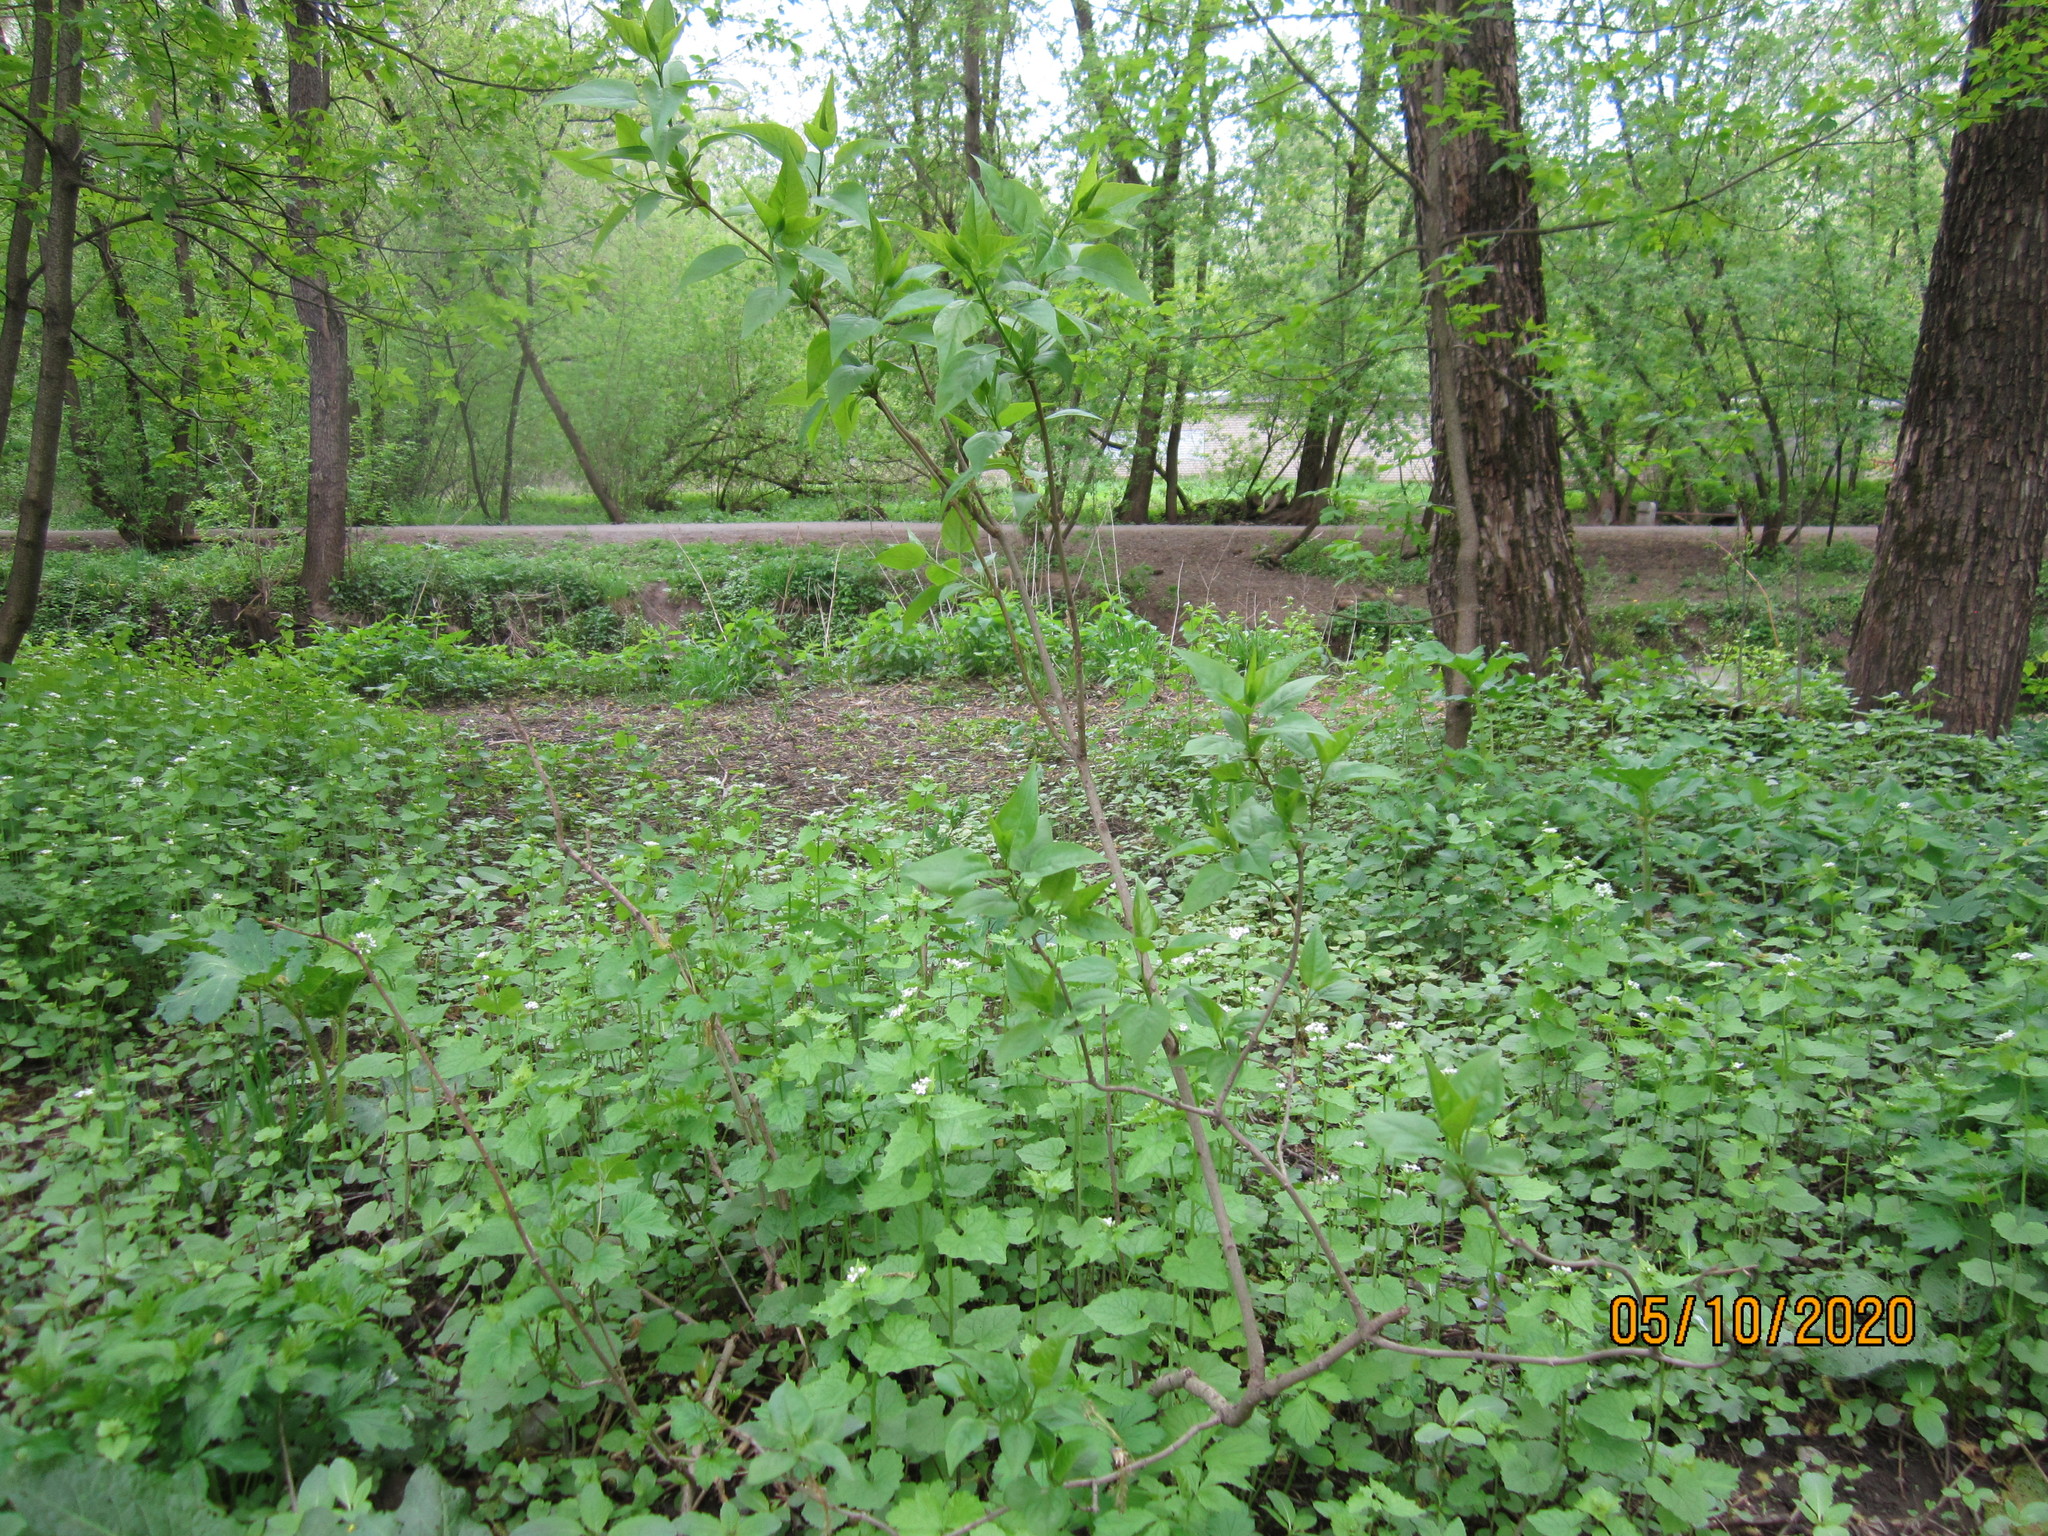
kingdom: Plantae
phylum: Tracheophyta
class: Magnoliopsida
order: Lamiales
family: Oleaceae
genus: Syringa
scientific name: Syringa vulgaris
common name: Common lilac
